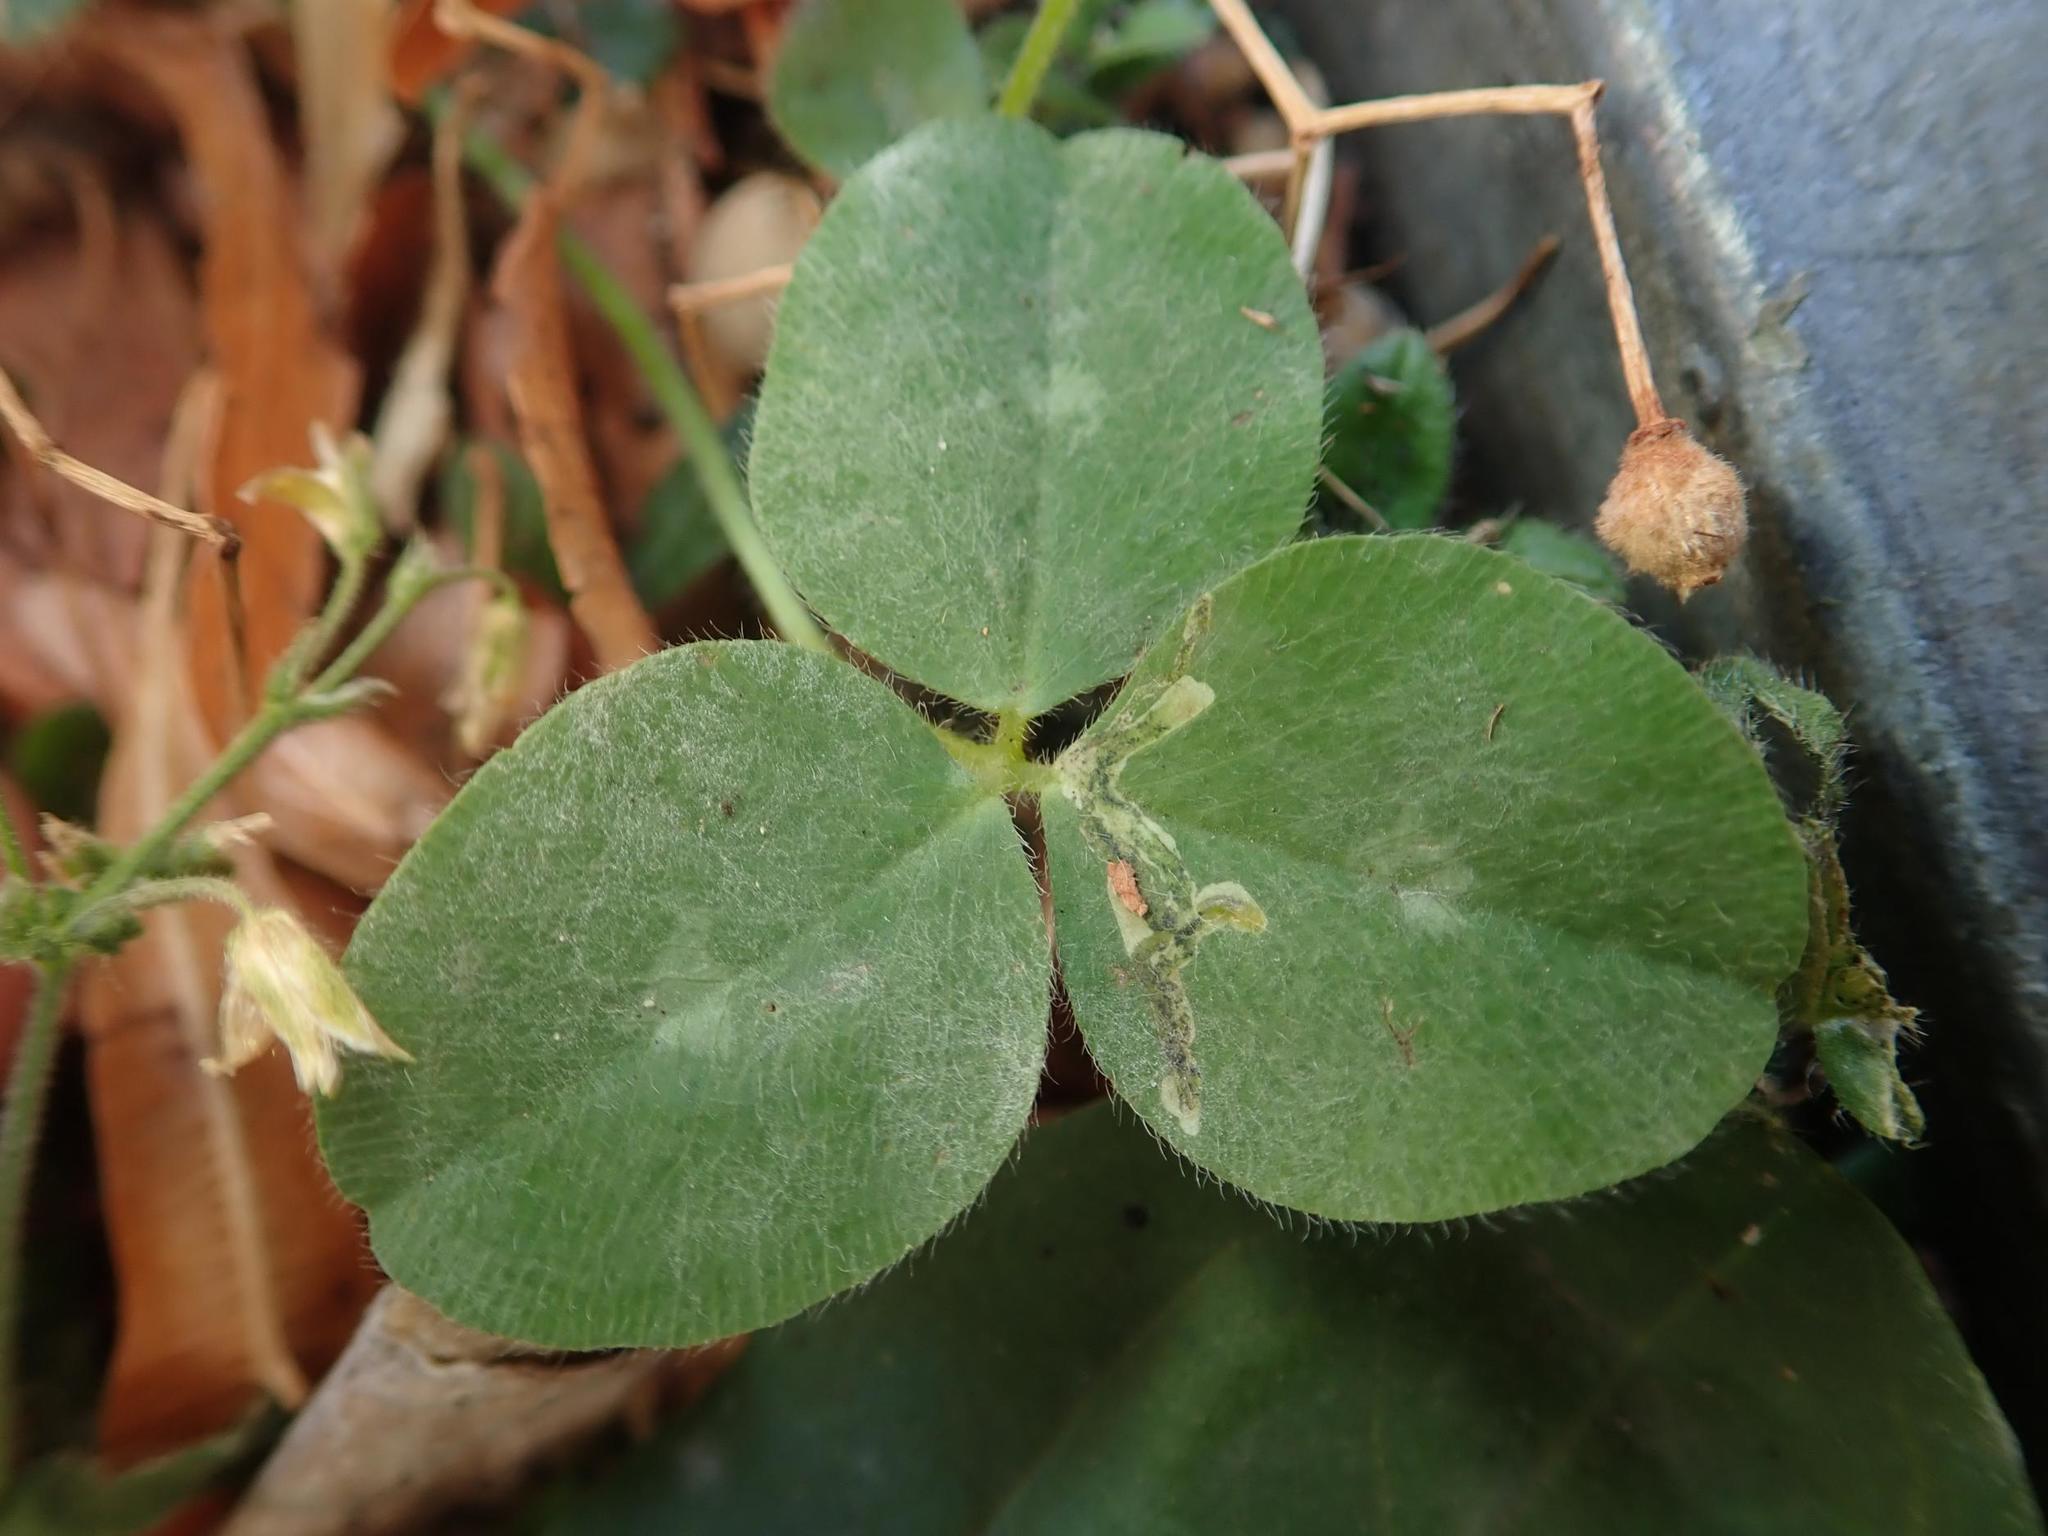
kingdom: Plantae
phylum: Tracheophyta
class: Magnoliopsida
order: Fabales
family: Fabaceae
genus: Trifolium
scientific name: Trifolium pratense
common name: Red clover
